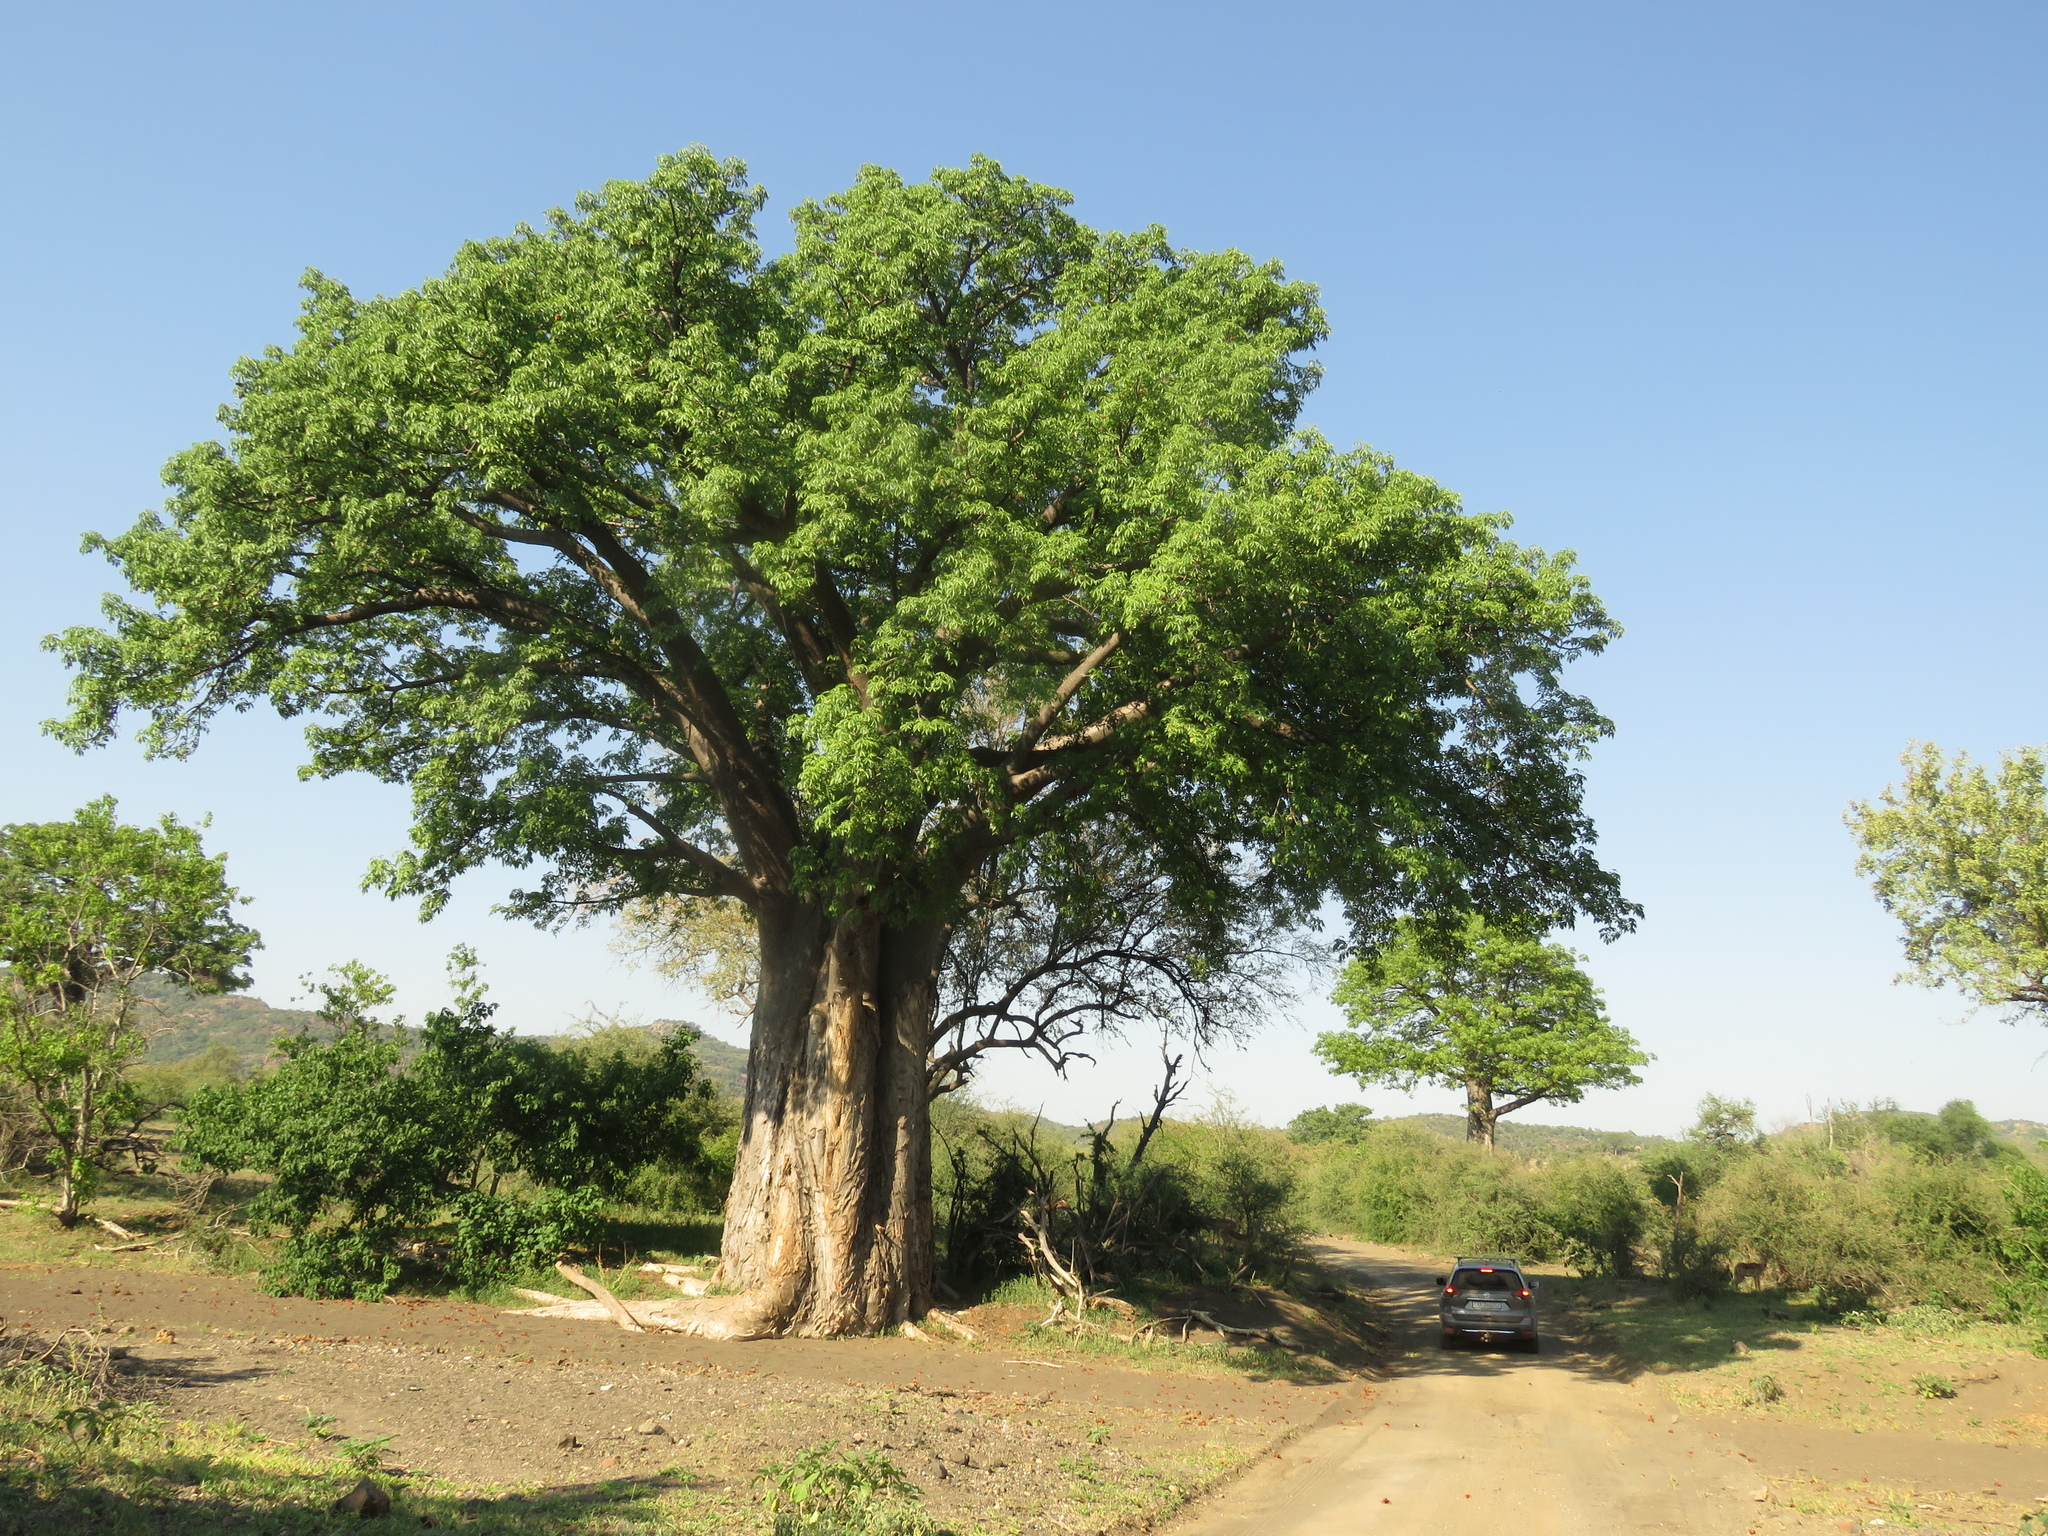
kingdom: Plantae
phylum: Tracheophyta
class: Magnoliopsida
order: Malvales
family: Malvaceae
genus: Adansonia
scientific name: Adansonia digitata
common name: Dead-rat-tree
